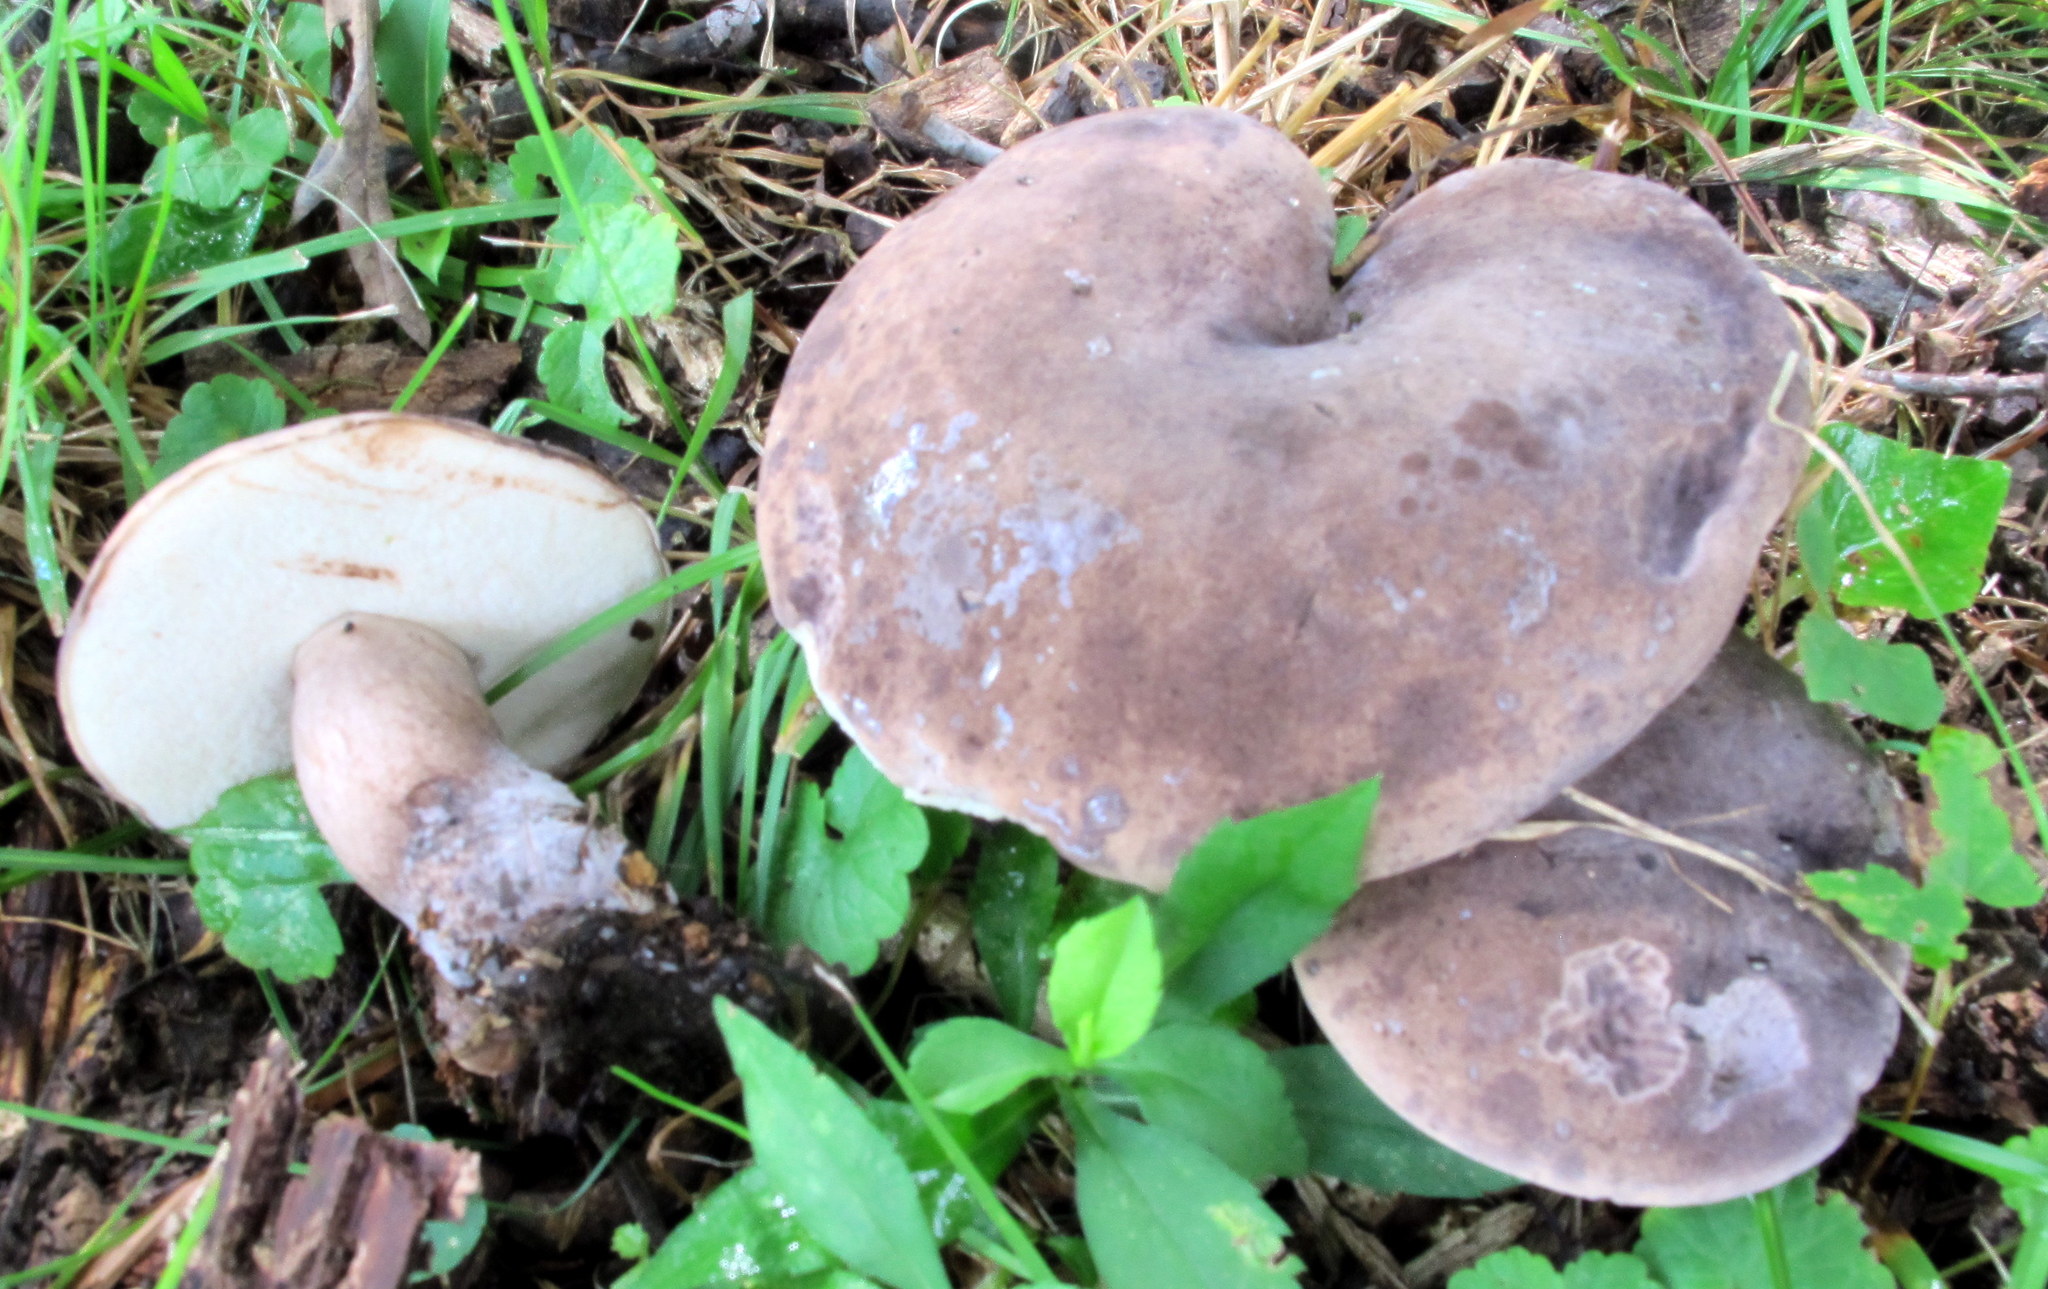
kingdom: Fungi
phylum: Basidiomycota
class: Agaricomycetes
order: Boletales
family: Boletaceae
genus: Tylopilus
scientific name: Tylopilus alboater
